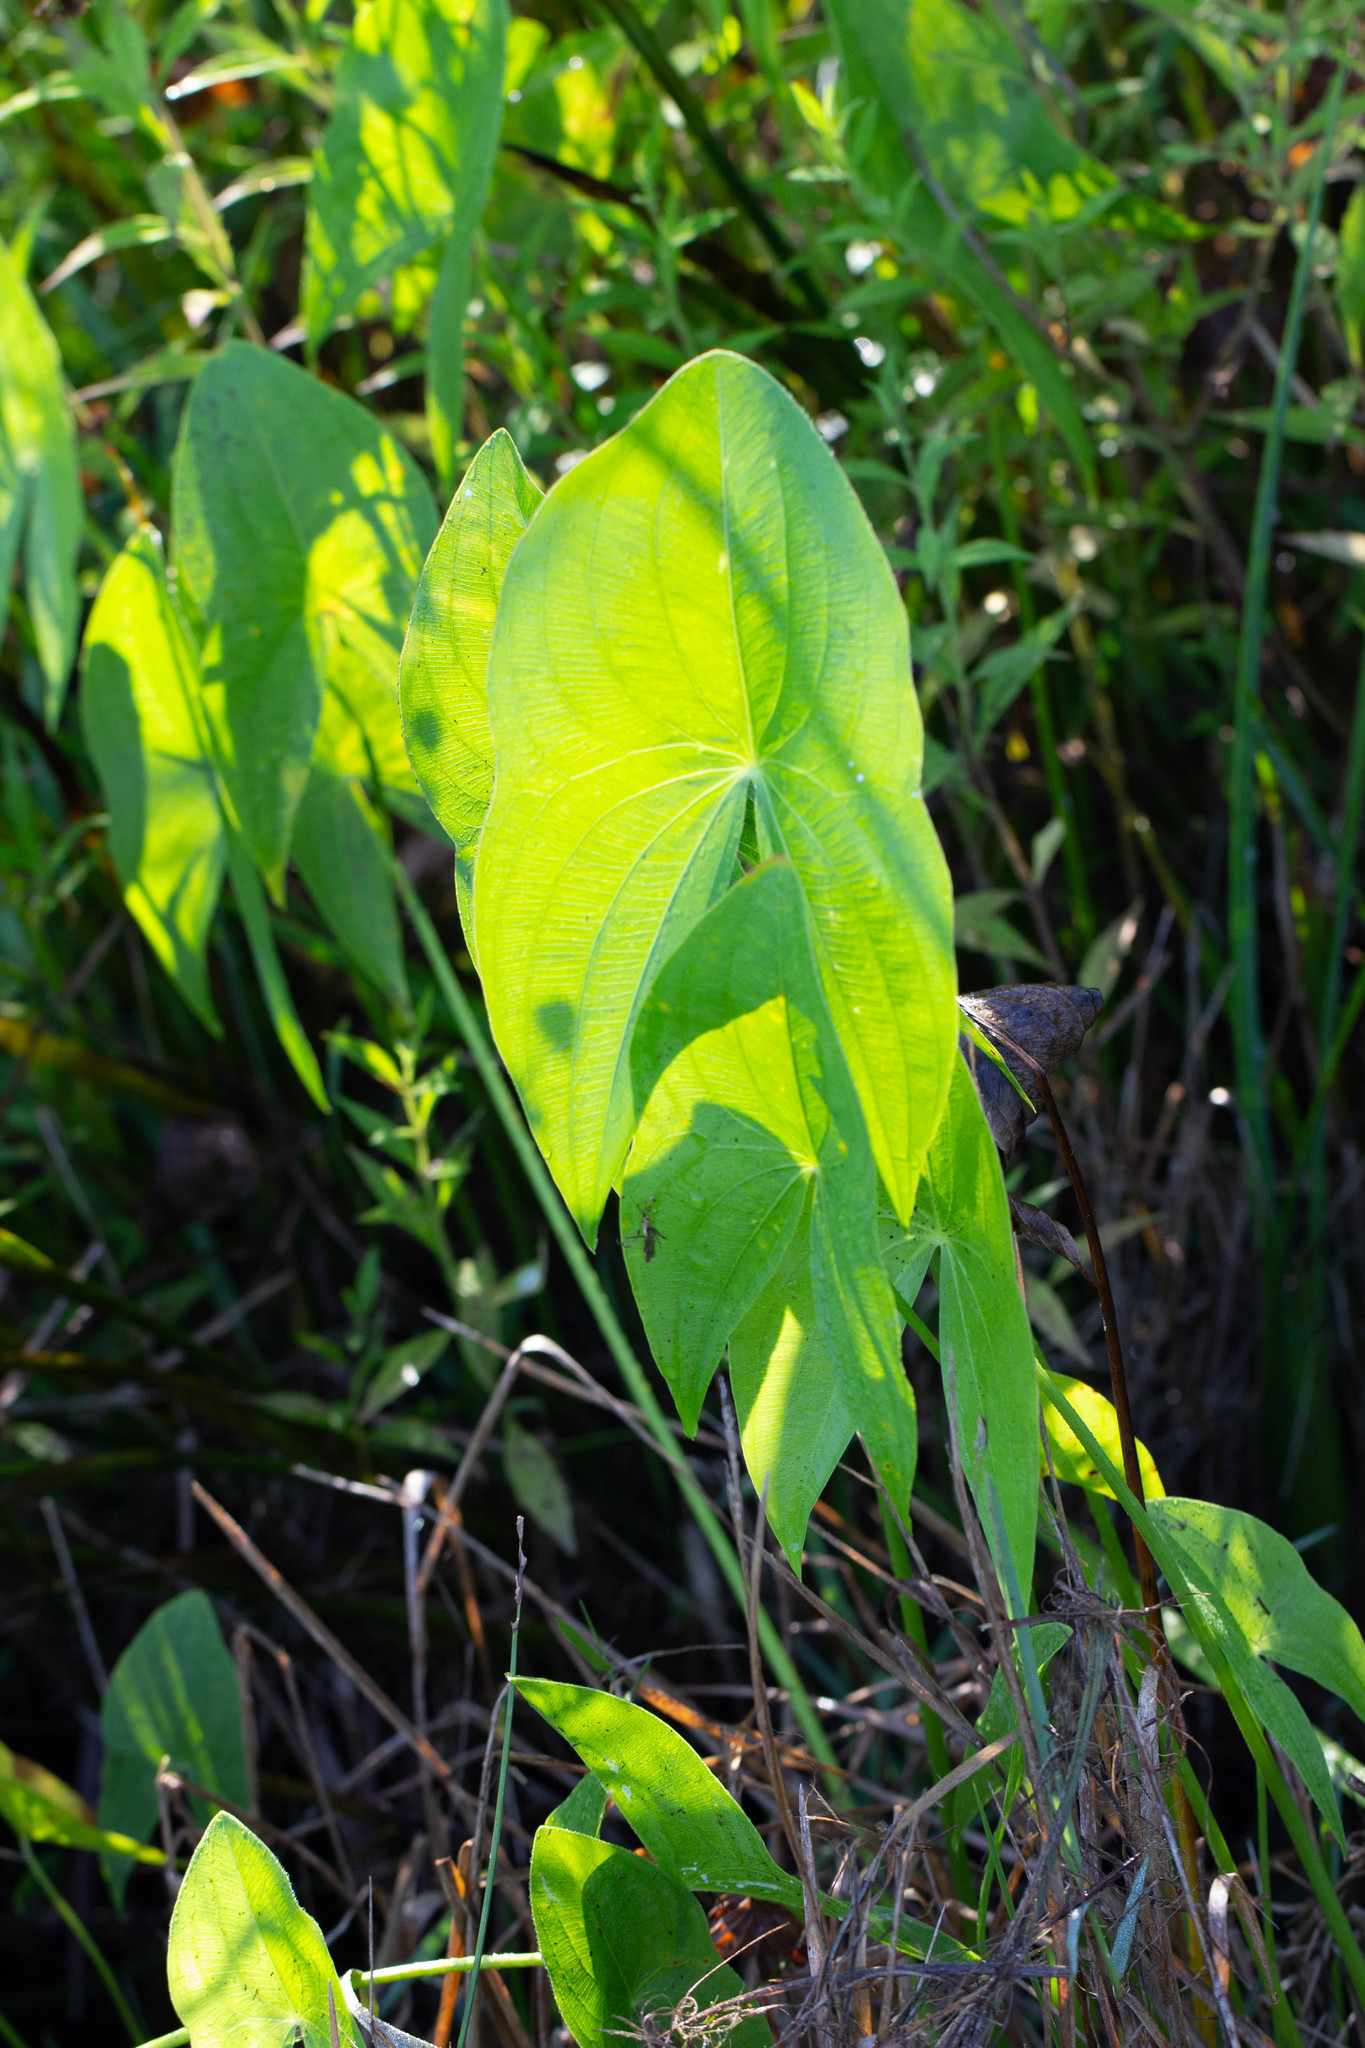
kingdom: Plantae
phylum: Tracheophyta
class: Liliopsida
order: Alismatales
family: Alismataceae
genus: Sagittaria
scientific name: Sagittaria latifolia
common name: Duck-potato
